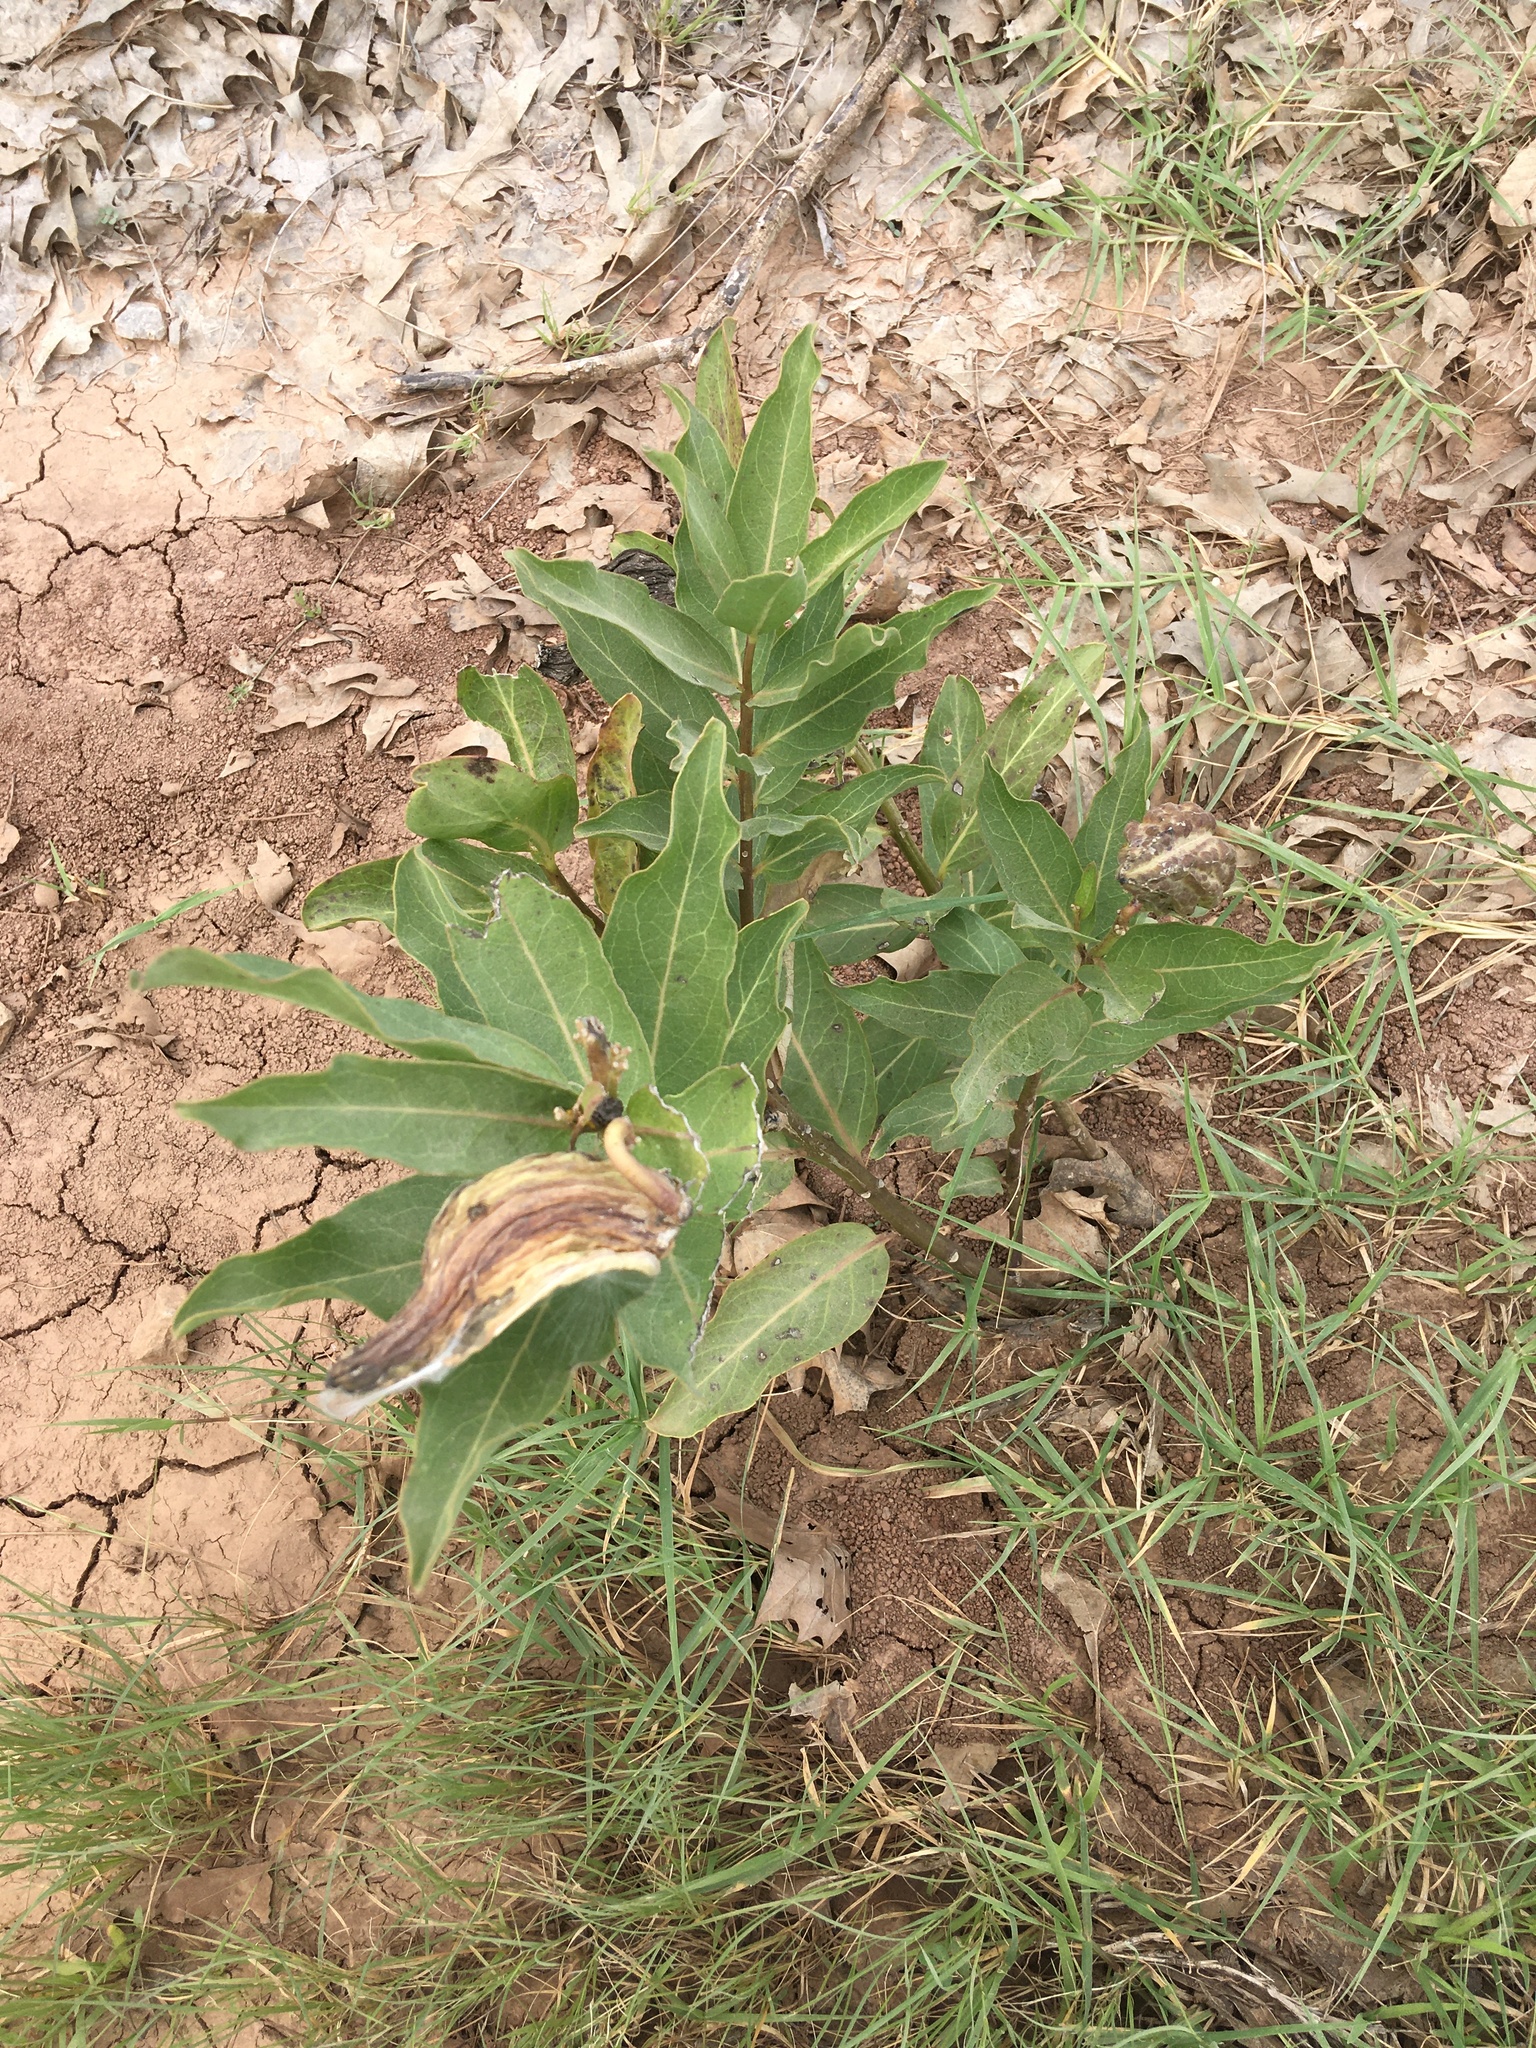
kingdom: Plantae
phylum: Tracheophyta
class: Magnoliopsida
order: Gentianales
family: Apocynaceae
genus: Asclepias
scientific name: Asclepias viridis
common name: Antelope-horns
